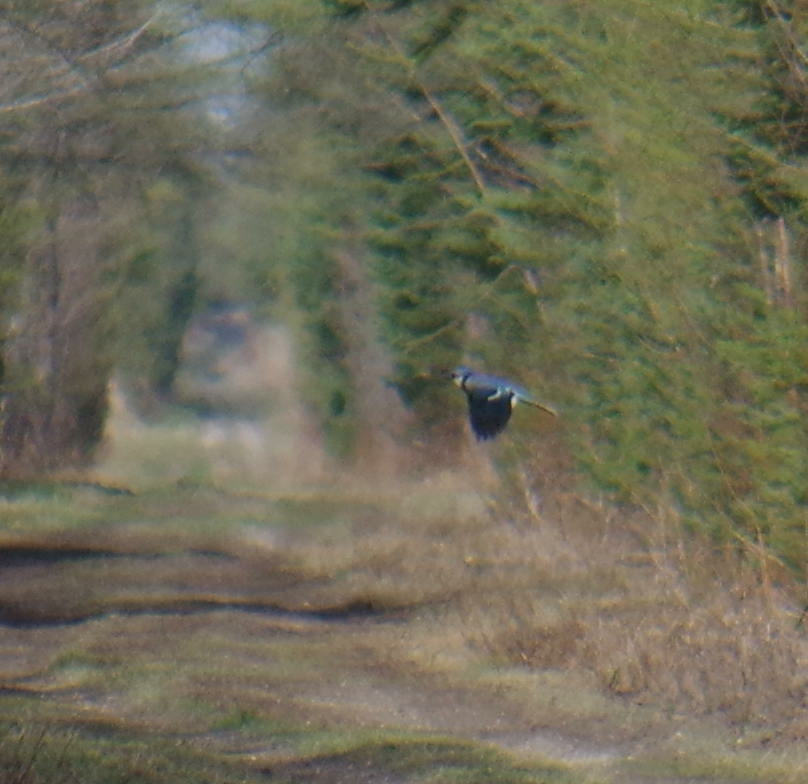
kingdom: Animalia
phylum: Chordata
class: Aves
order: Passeriformes
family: Corvidae
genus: Cyanocitta
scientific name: Cyanocitta cristata
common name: Blue jay
